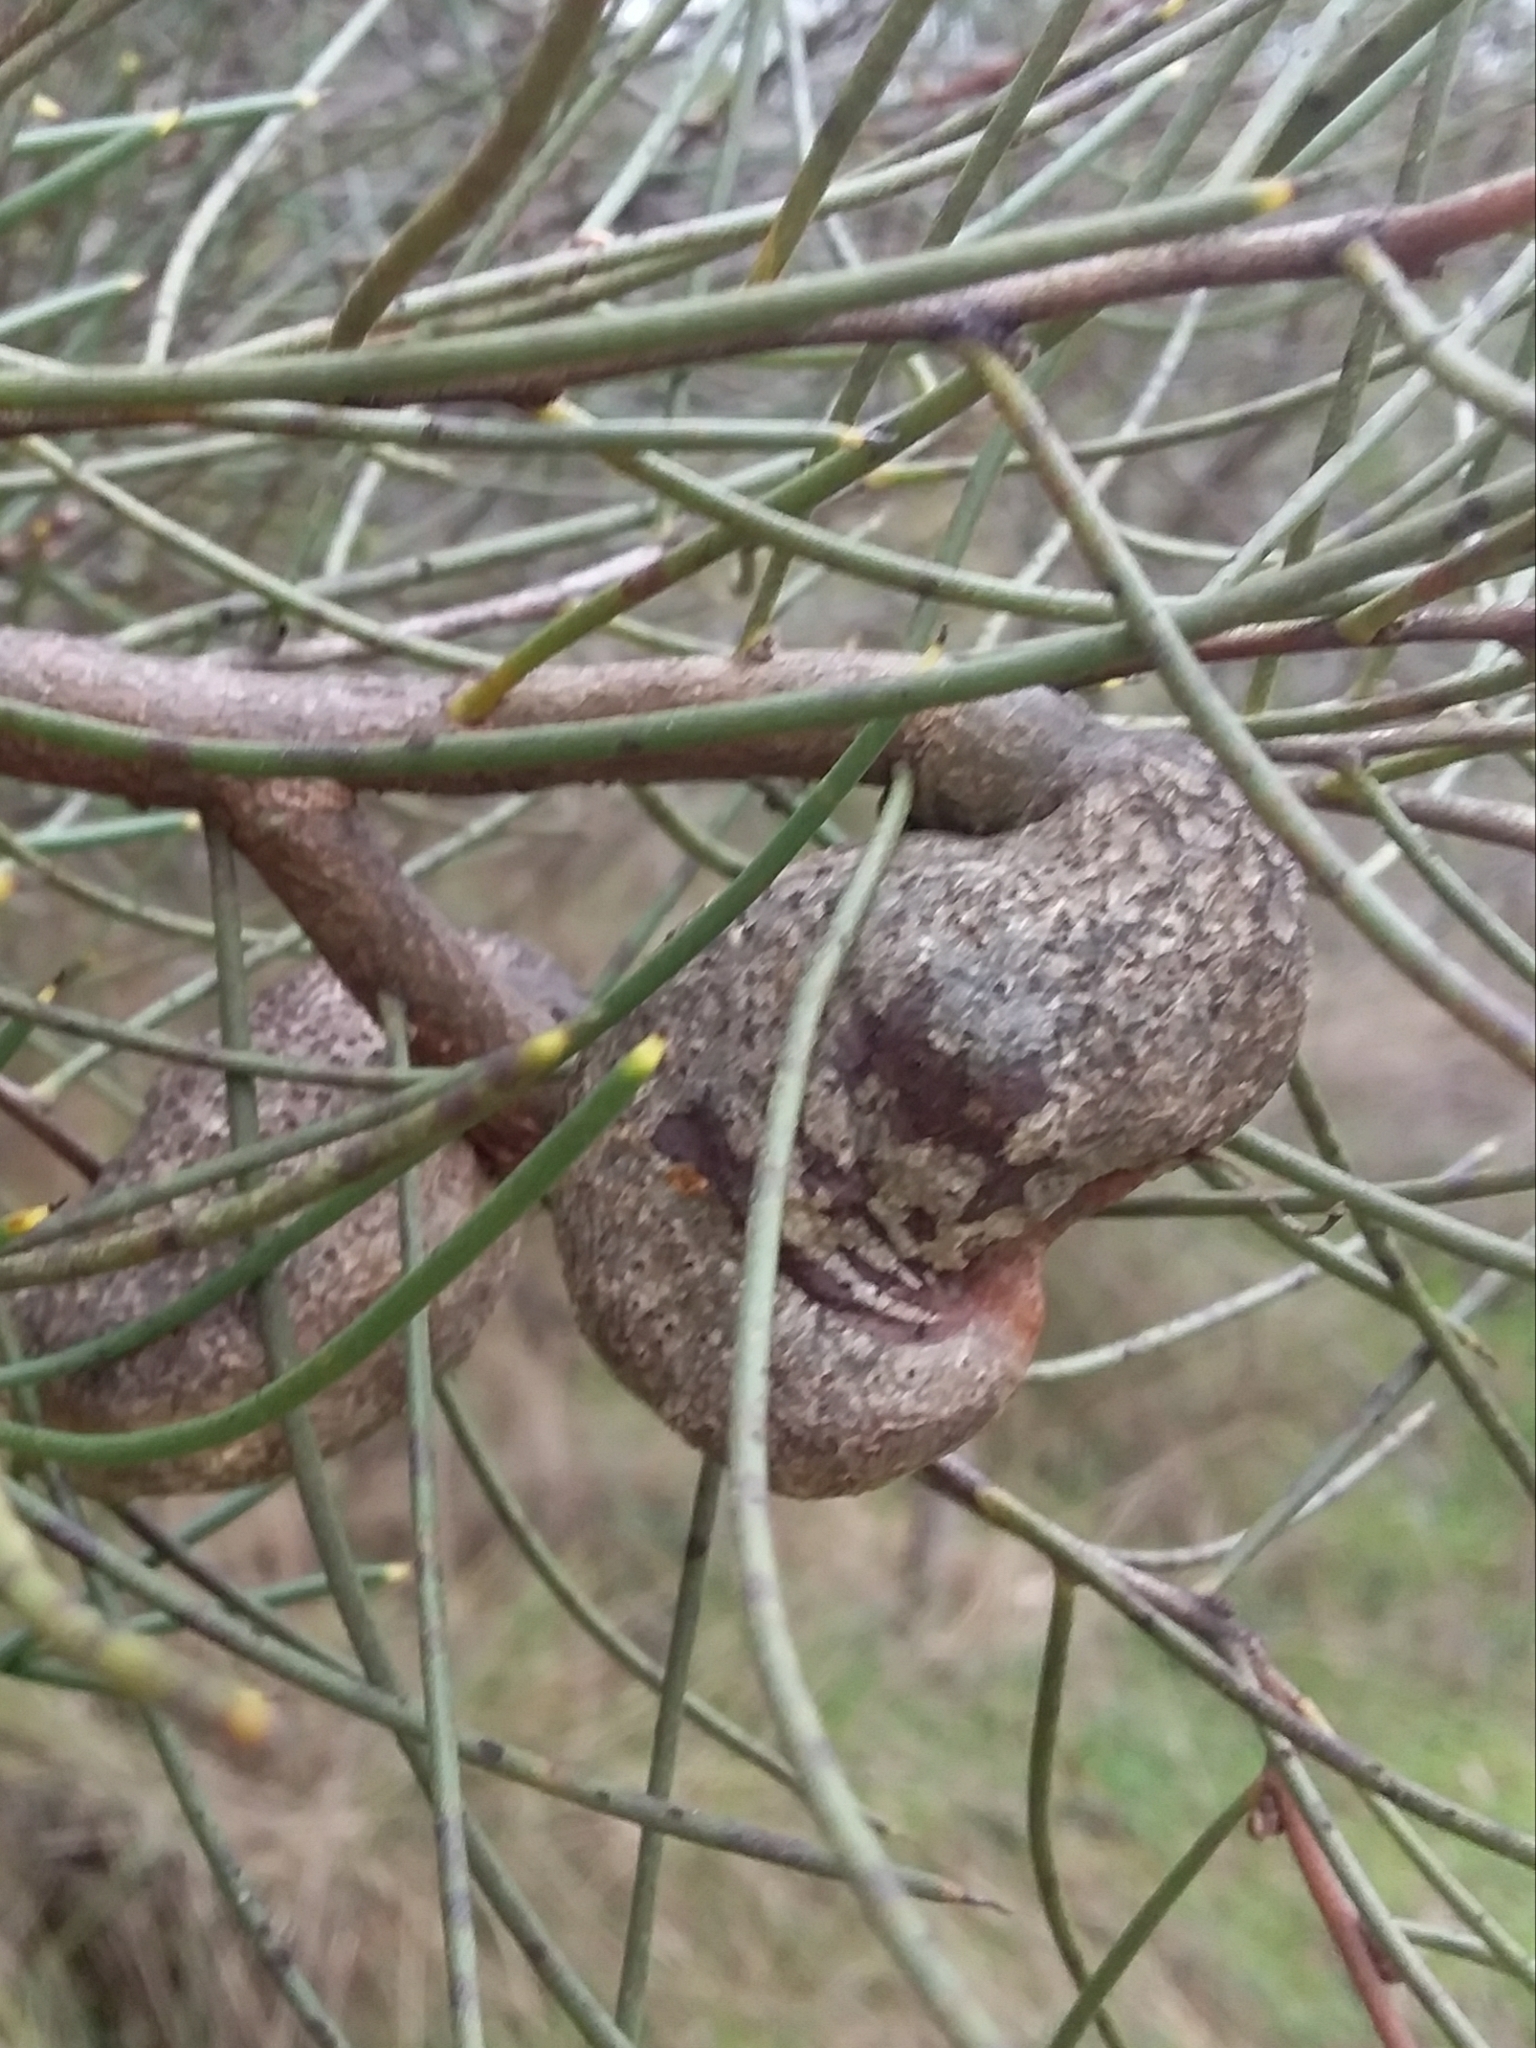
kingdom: Plantae
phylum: Tracheophyta
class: Magnoliopsida
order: Proteales
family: Proteaceae
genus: Hakea
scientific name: Hakea rostrata
